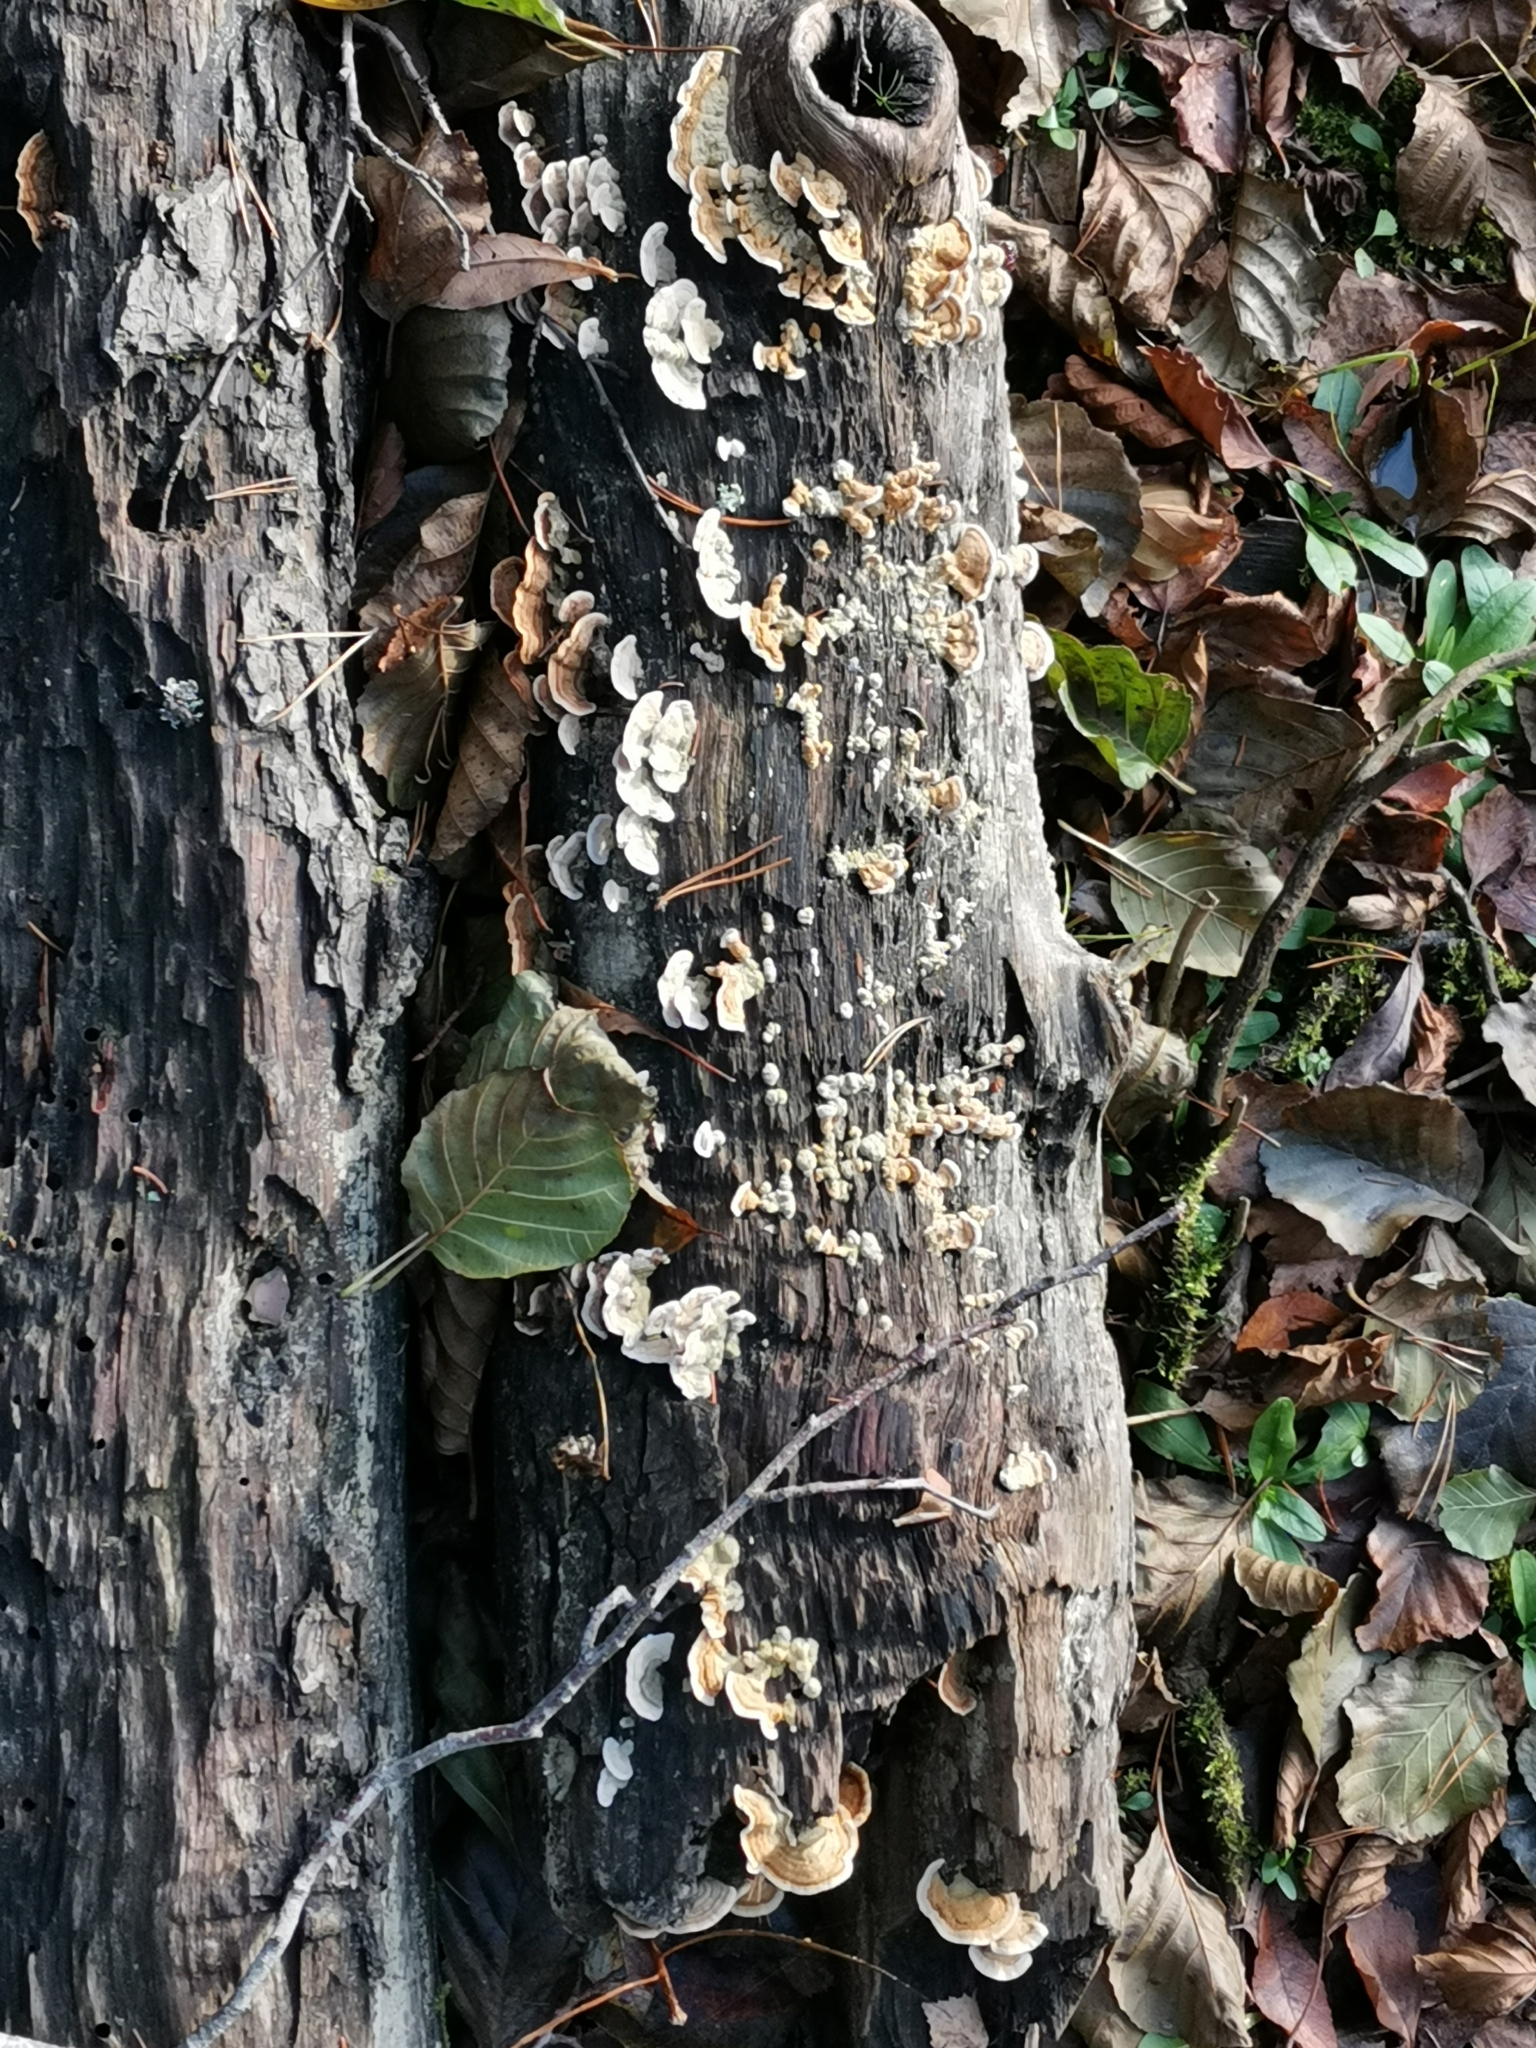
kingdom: Fungi
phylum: Basidiomycota
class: Agaricomycetes
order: Russulales
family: Stereaceae
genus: Stereum
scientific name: Stereum subtomentosum
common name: Yellowing curtain crust
